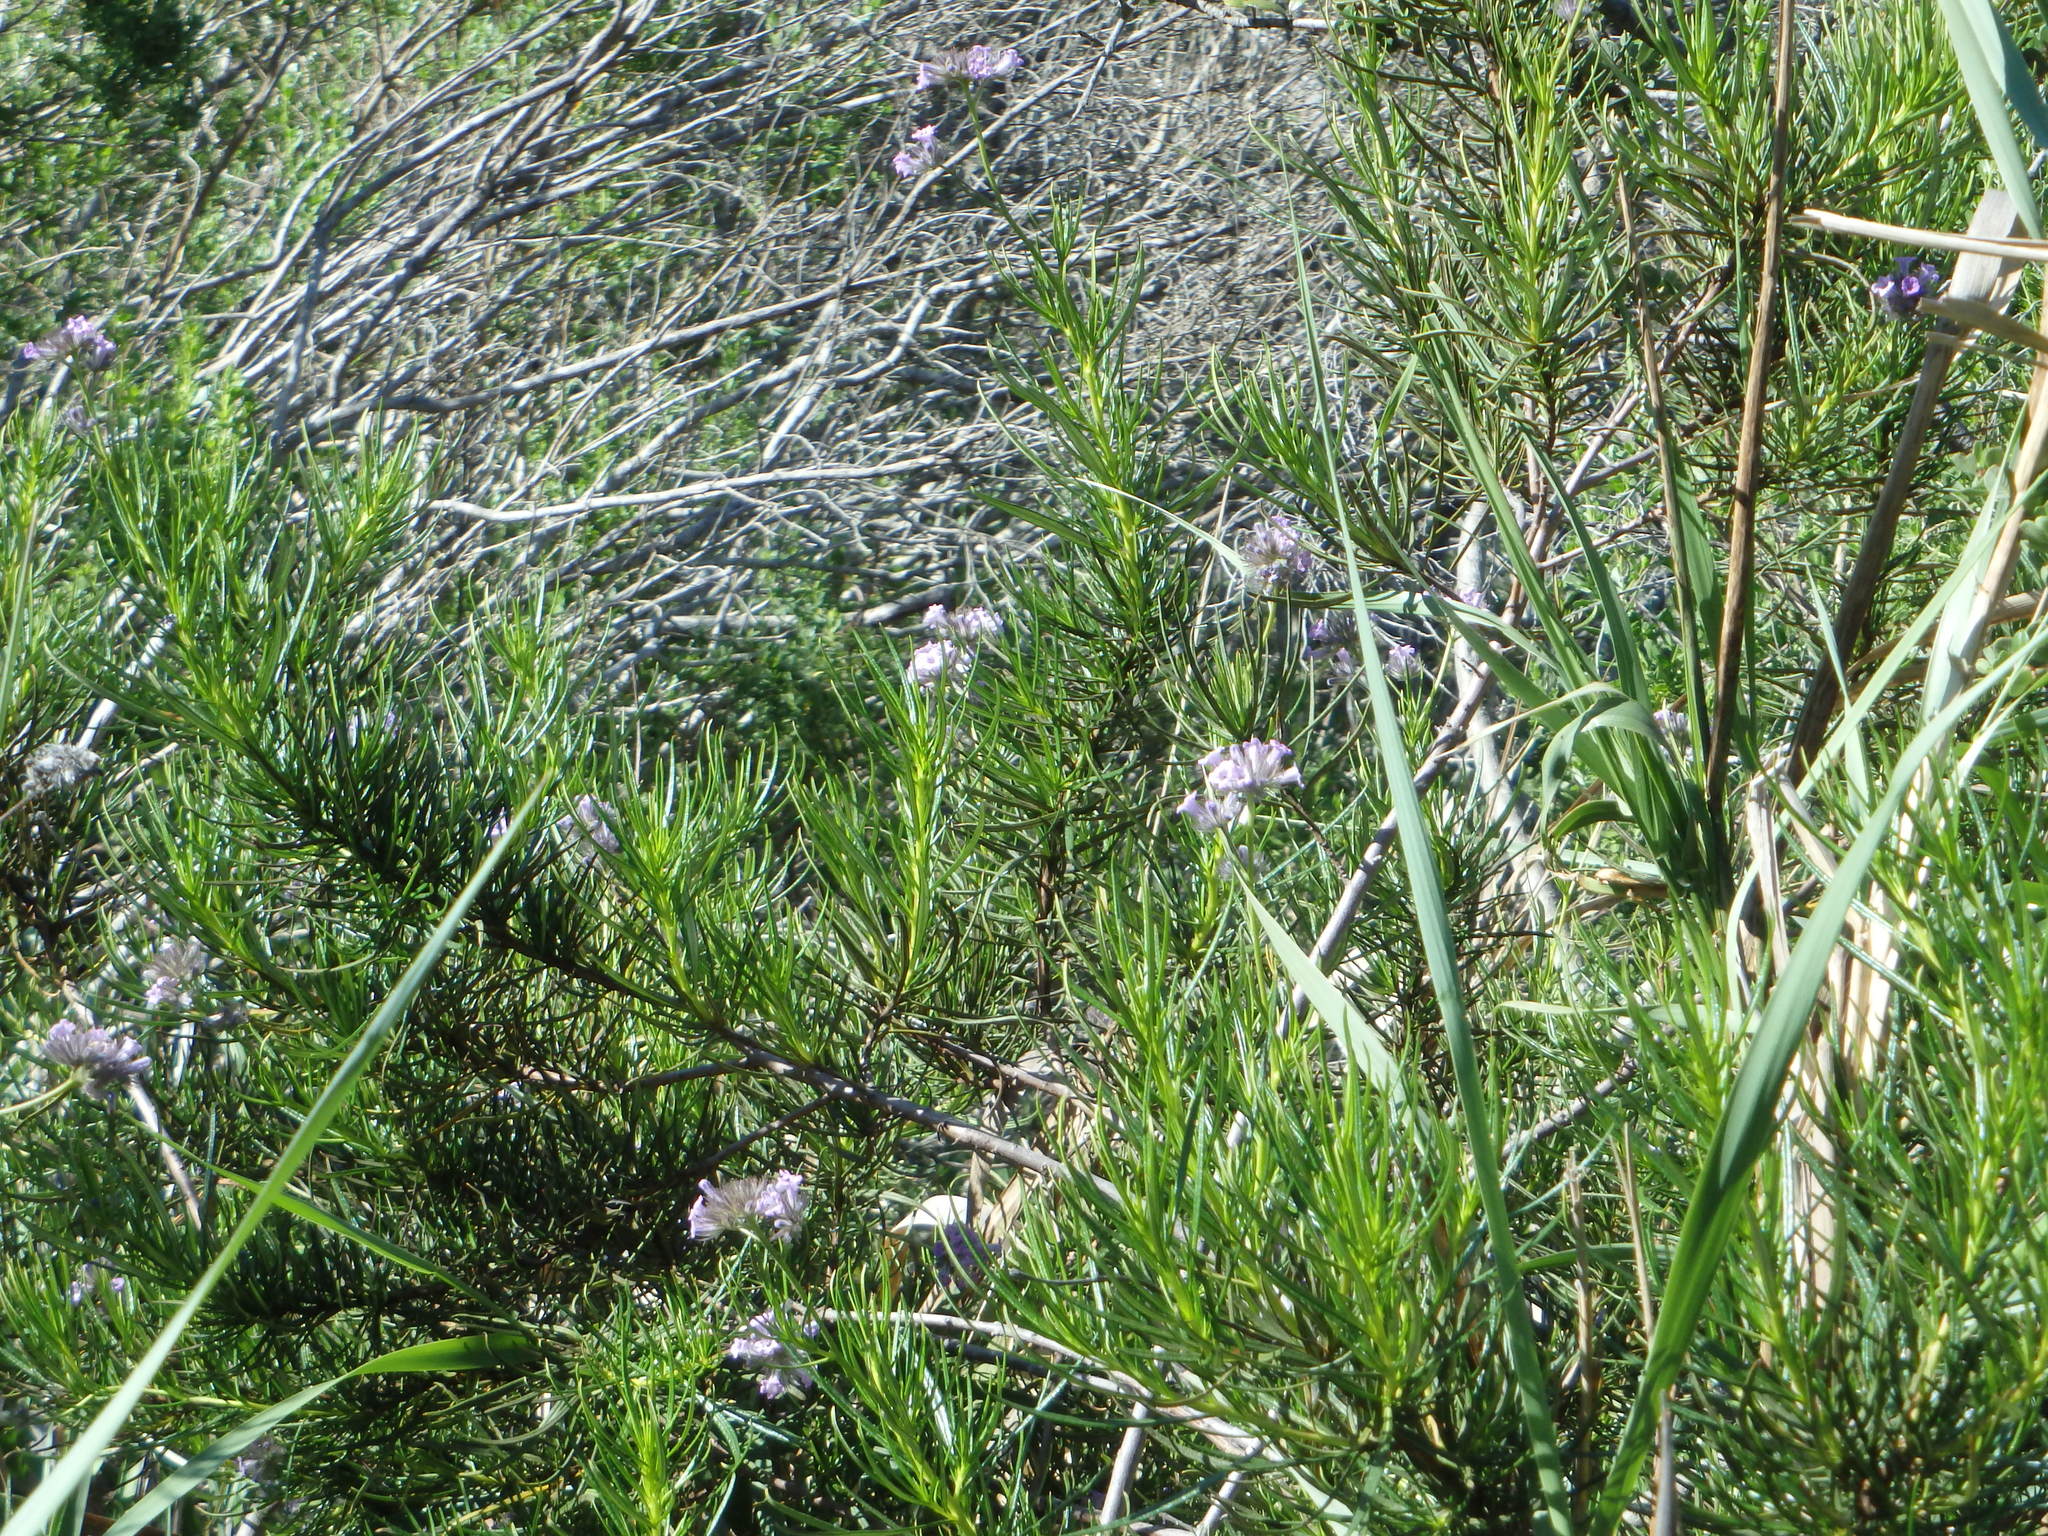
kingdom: Plantae
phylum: Tracheophyta
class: Magnoliopsida
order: Boraginales
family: Namaceae
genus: Eriodictyon
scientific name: Eriodictyon capitatum
